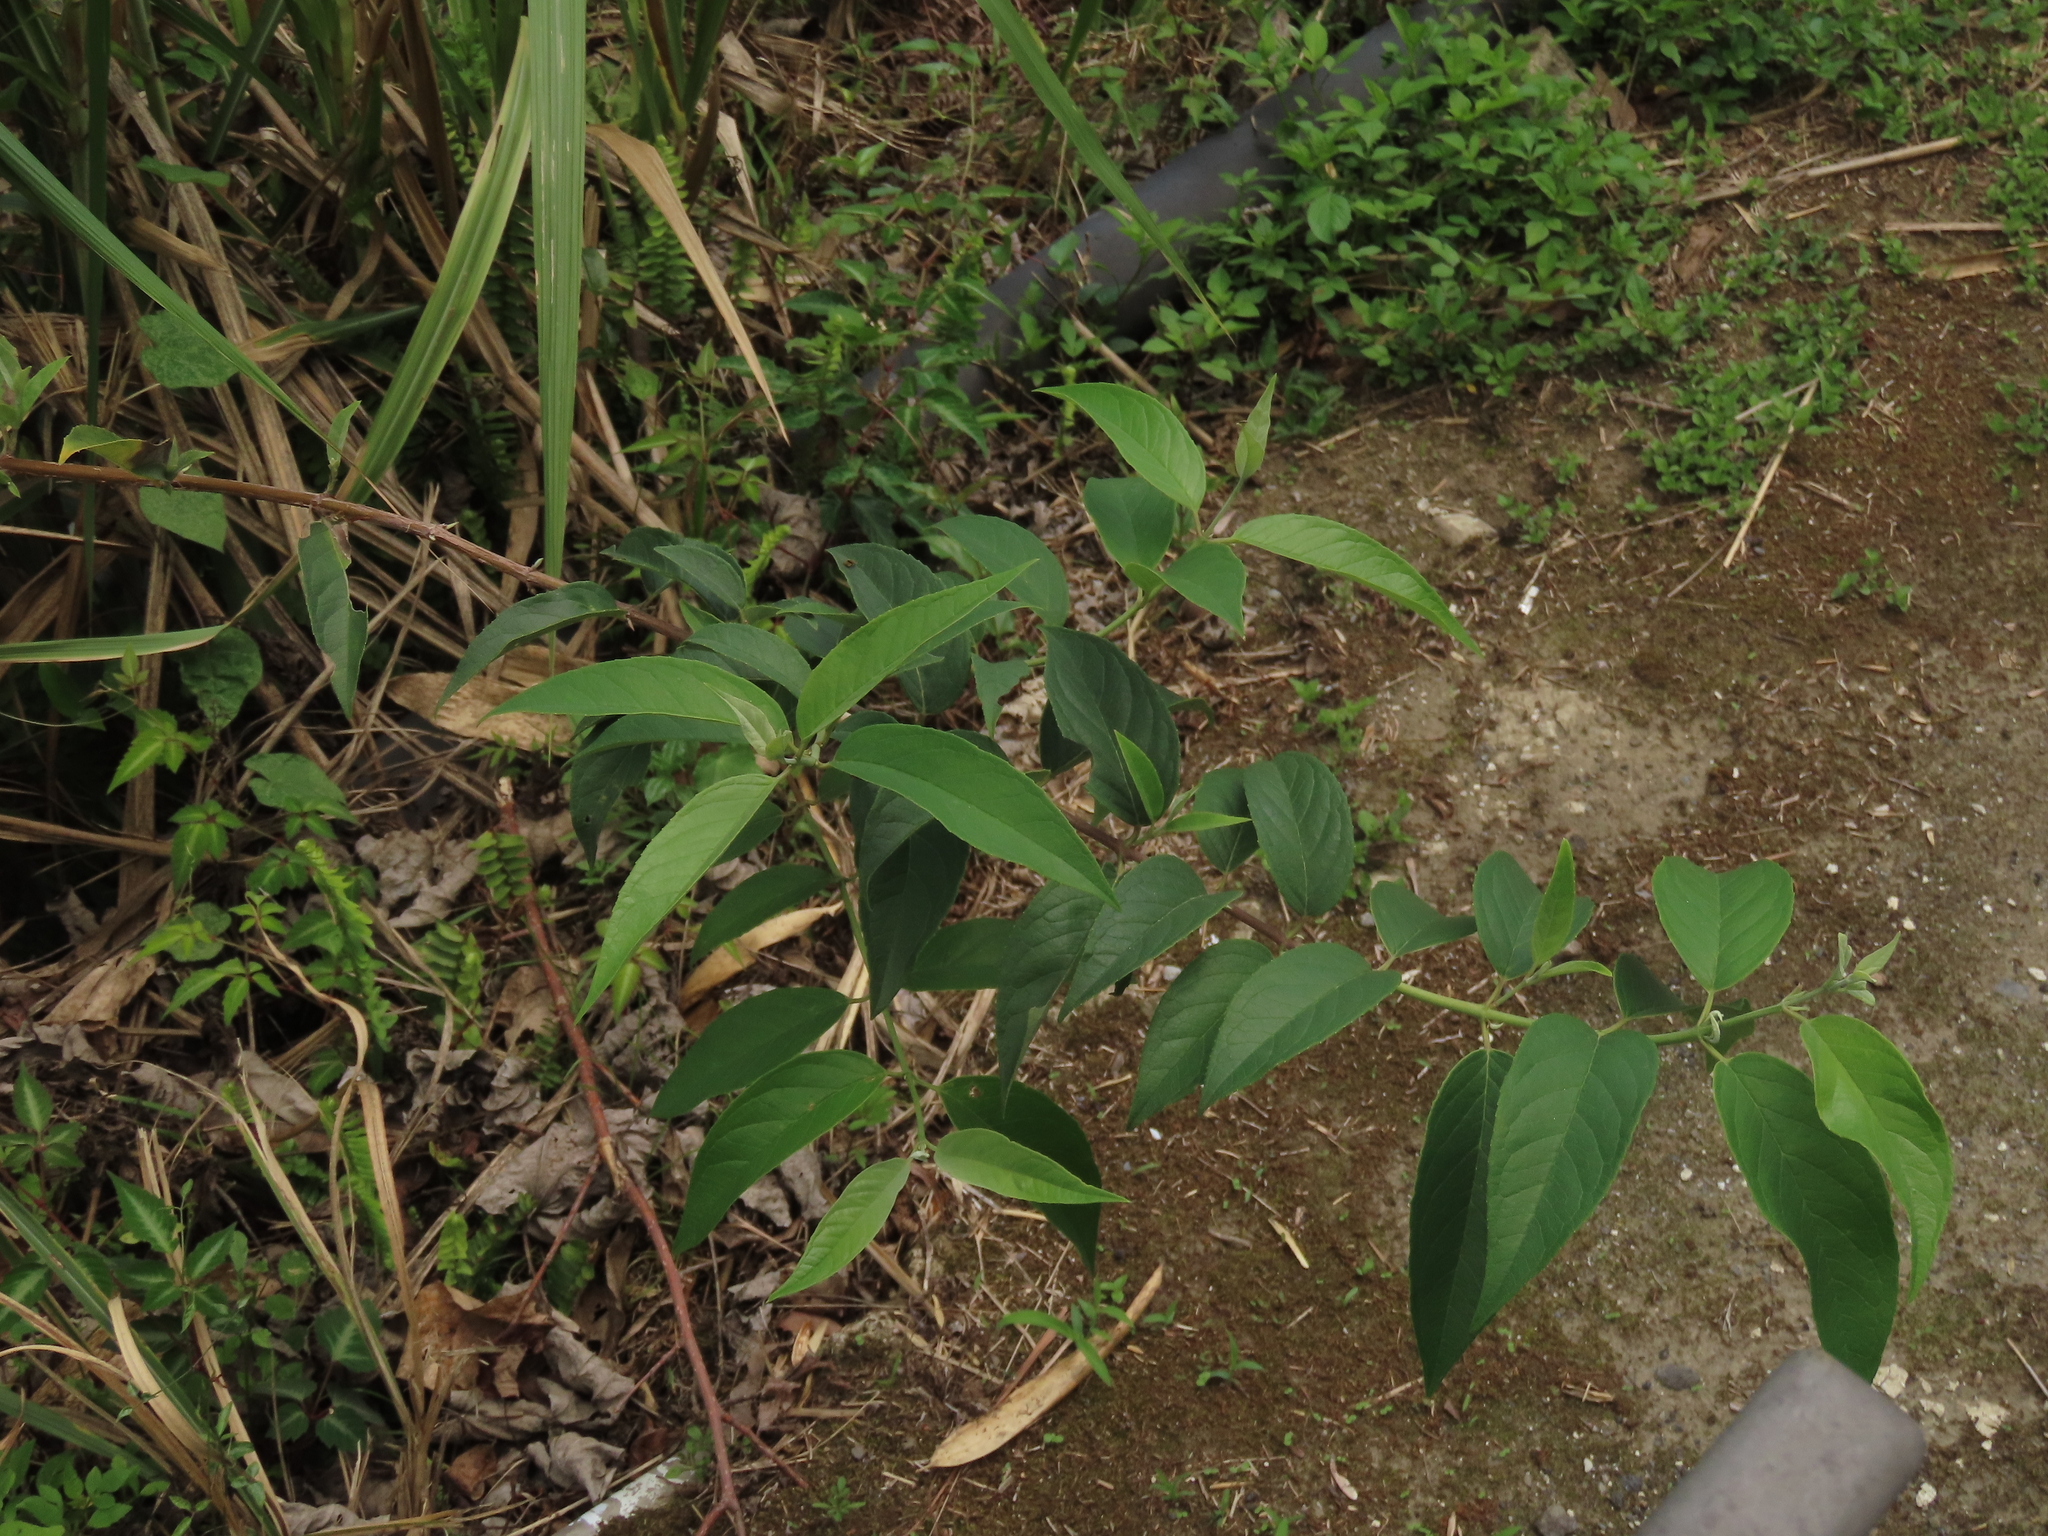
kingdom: Plantae
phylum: Tracheophyta
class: Magnoliopsida
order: Cornales
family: Hydrangeaceae
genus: Deutzia
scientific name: Deutzia pulchra
